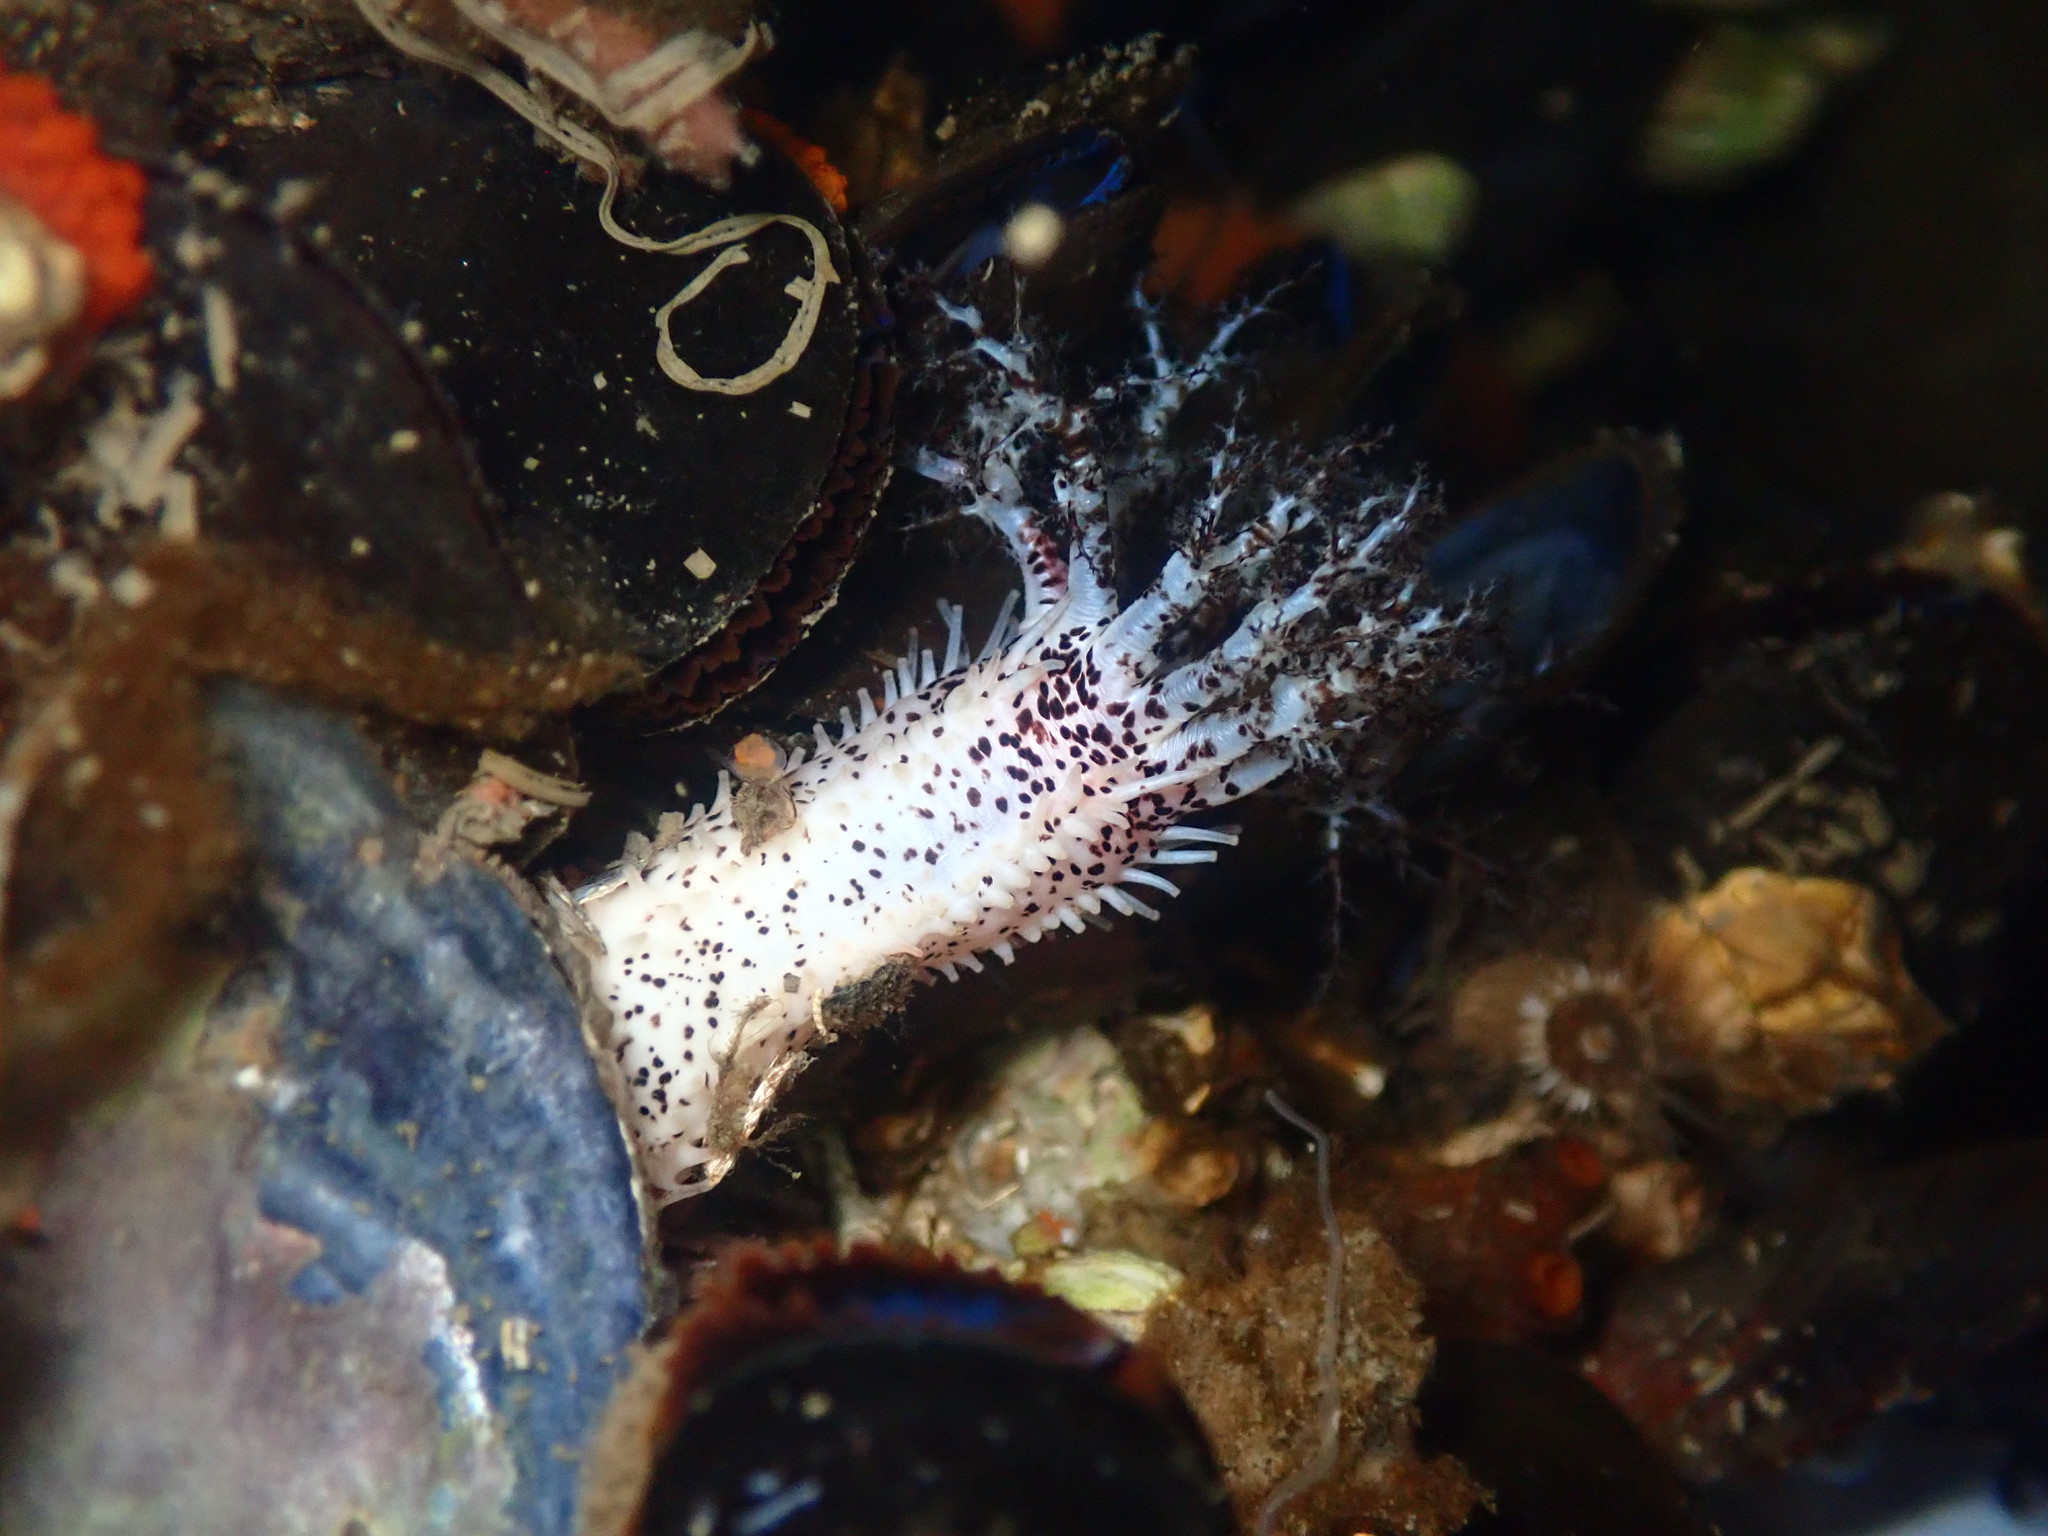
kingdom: Animalia
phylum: Echinodermata
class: Holothuroidea
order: Dendrochirotida
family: Cucumariidae
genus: Cucumaria
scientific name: Cucumaria piperata
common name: Peppered sea cucumber
